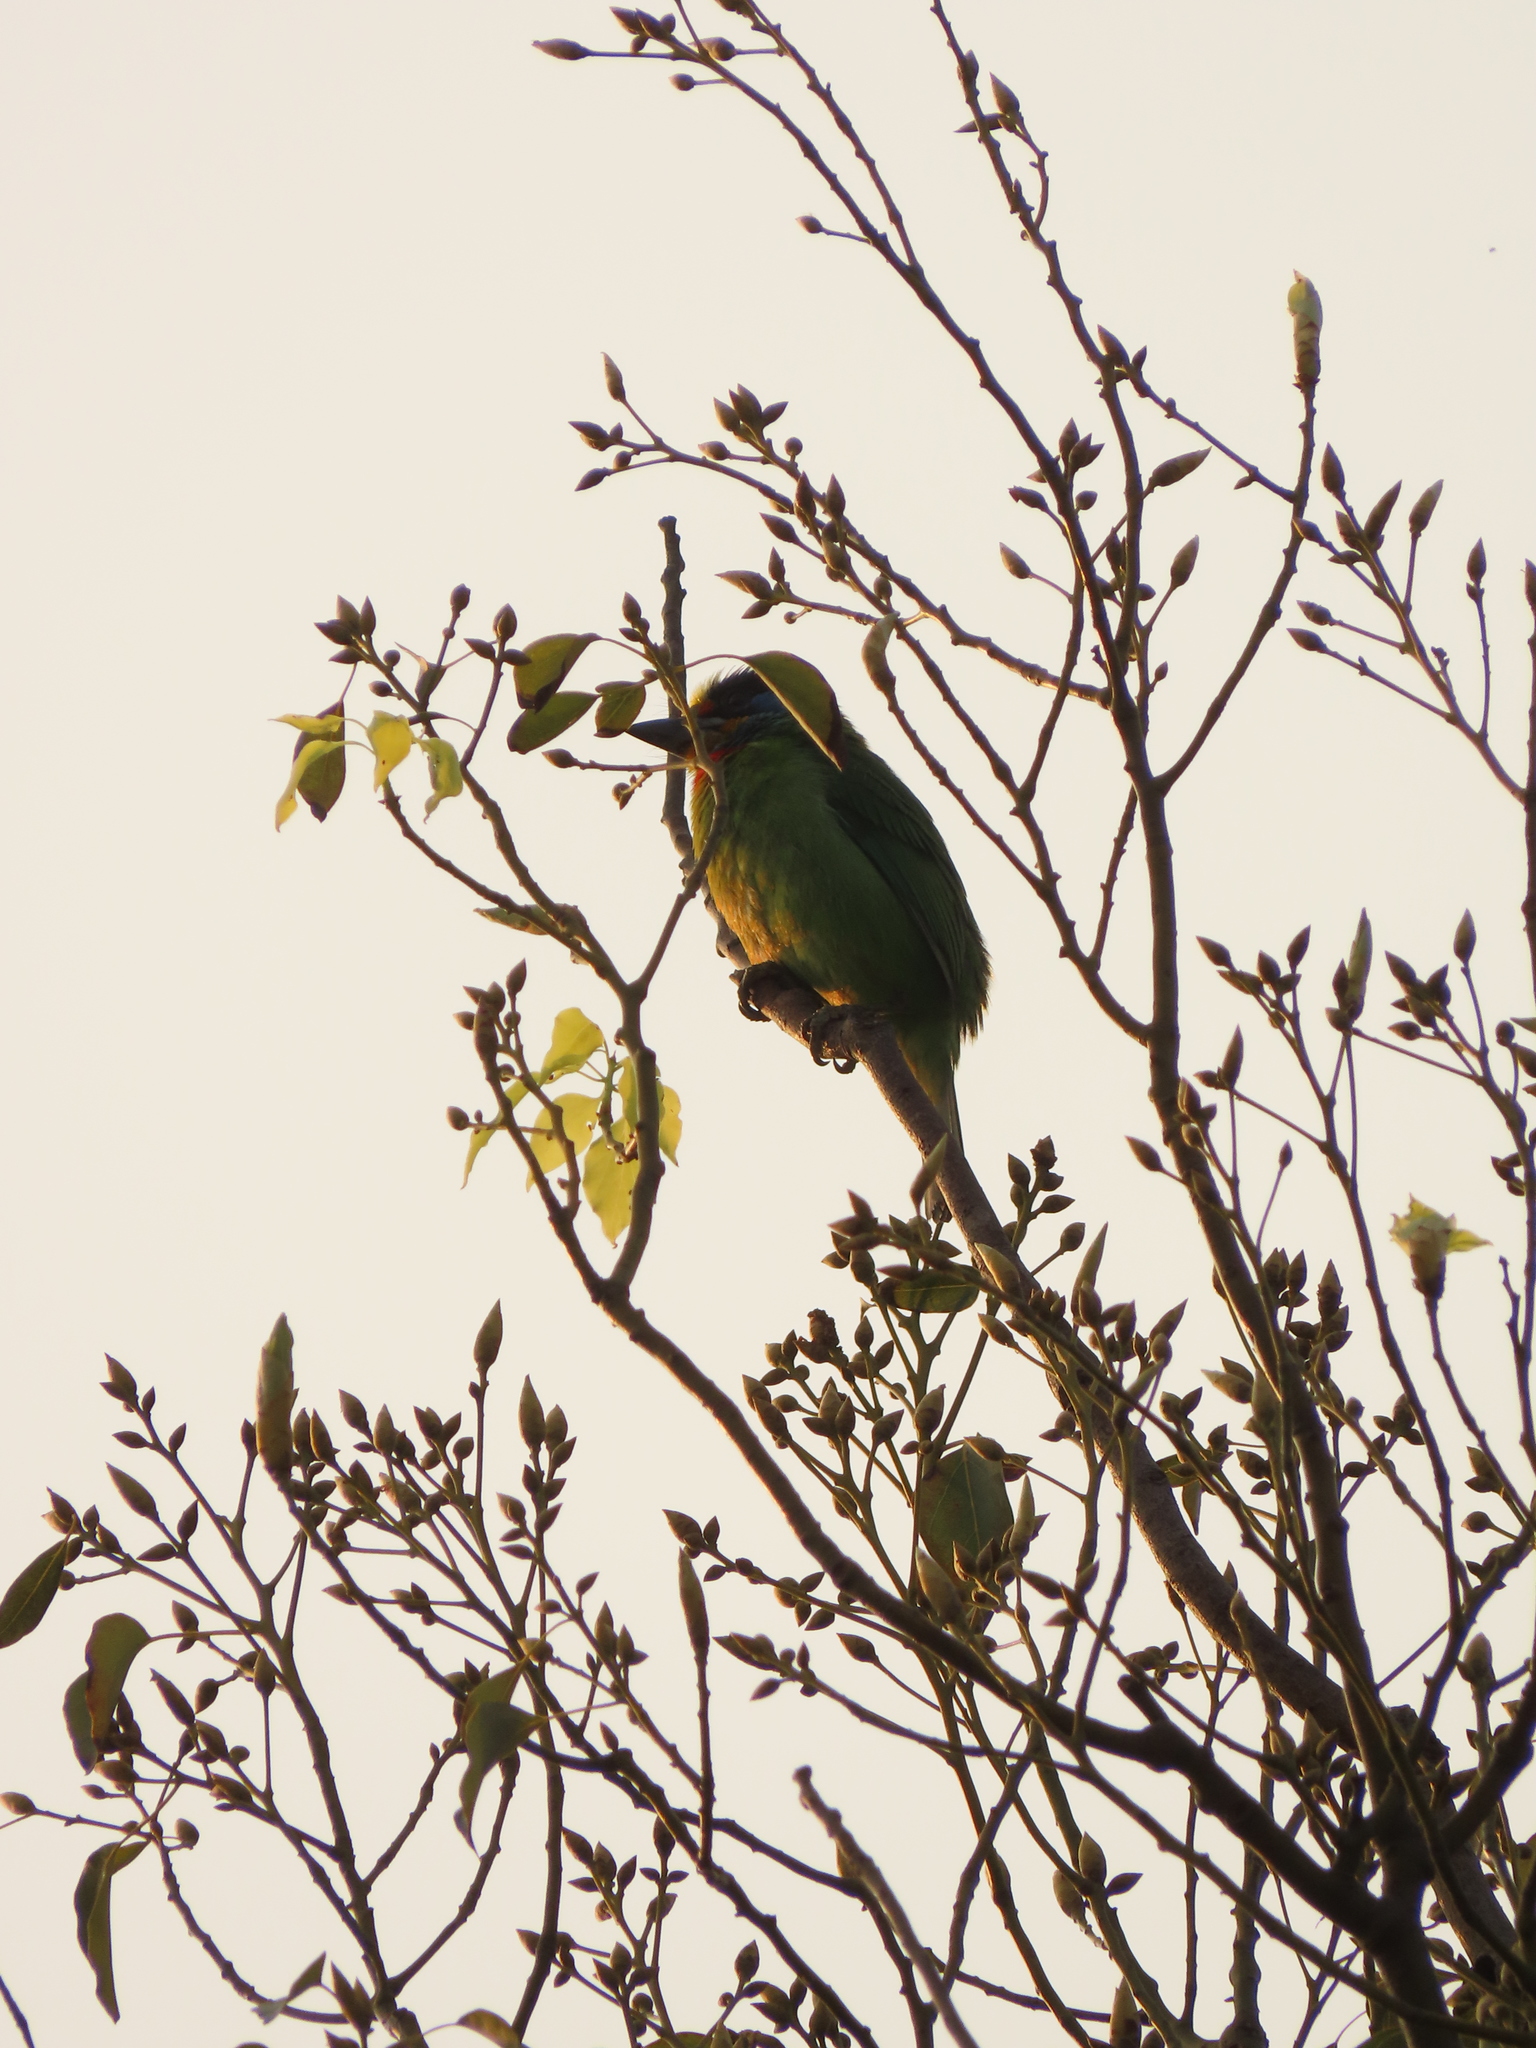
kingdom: Animalia
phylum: Chordata
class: Aves
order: Piciformes
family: Megalaimidae
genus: Psilopogon
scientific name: Psilopogon nuchalis
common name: Taiwan barbet
